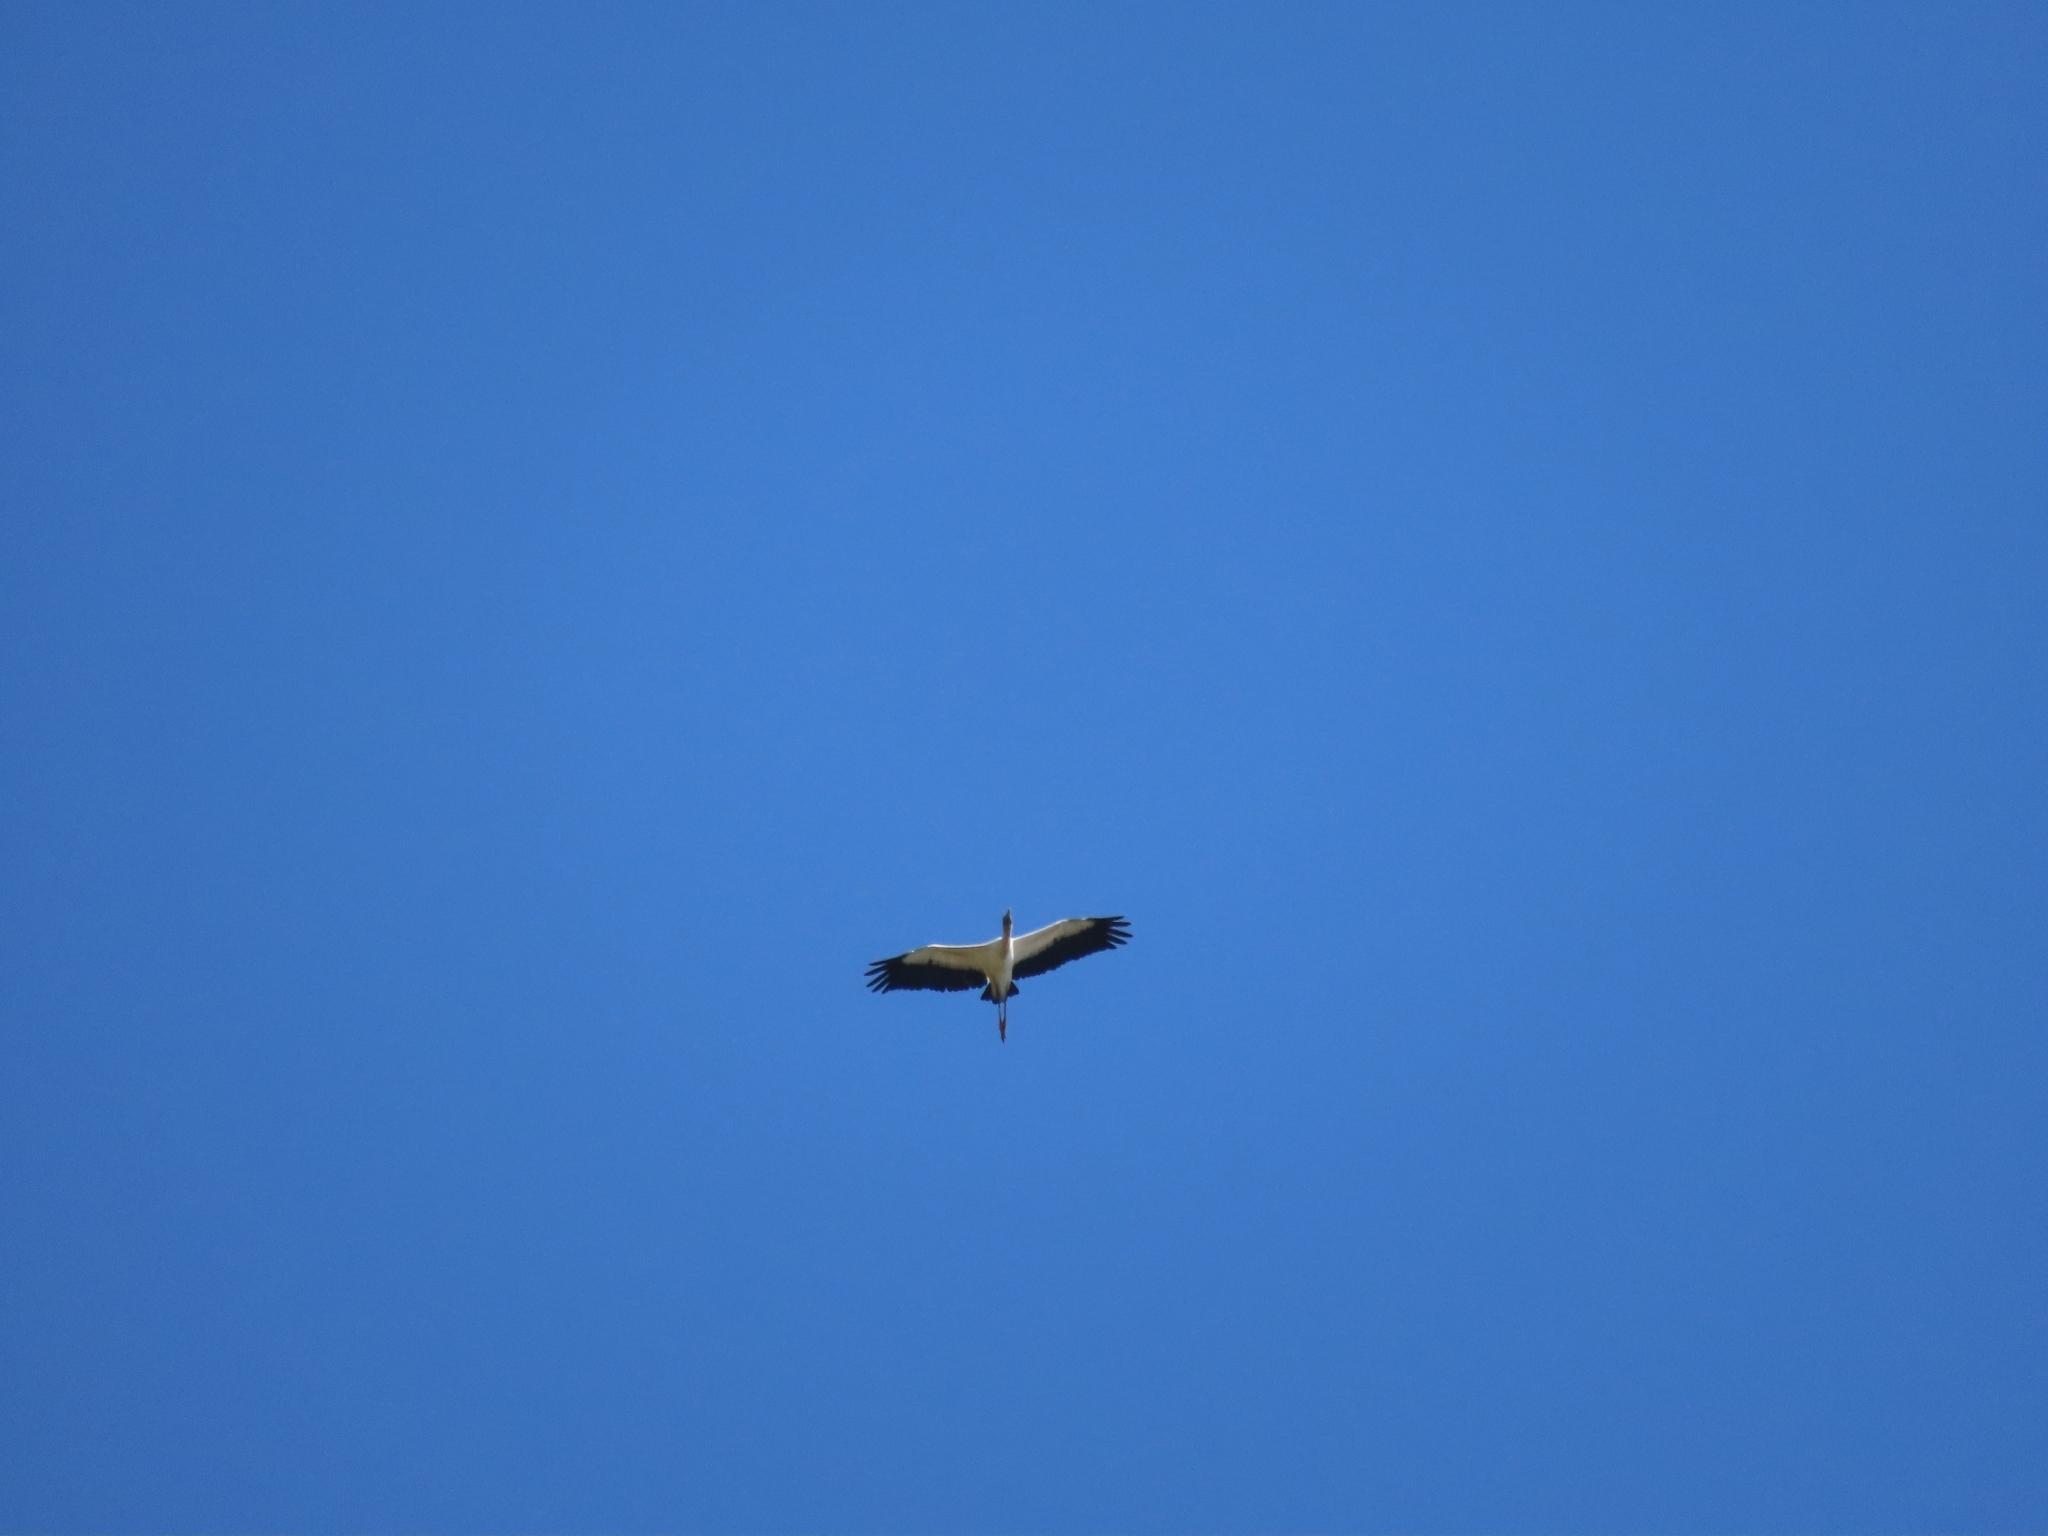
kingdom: Animalia
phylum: Chordata
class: Aves
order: Ciconiiformes
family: Ciconiidae
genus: Mycteria
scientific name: Mycteria americana
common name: Wood stork
